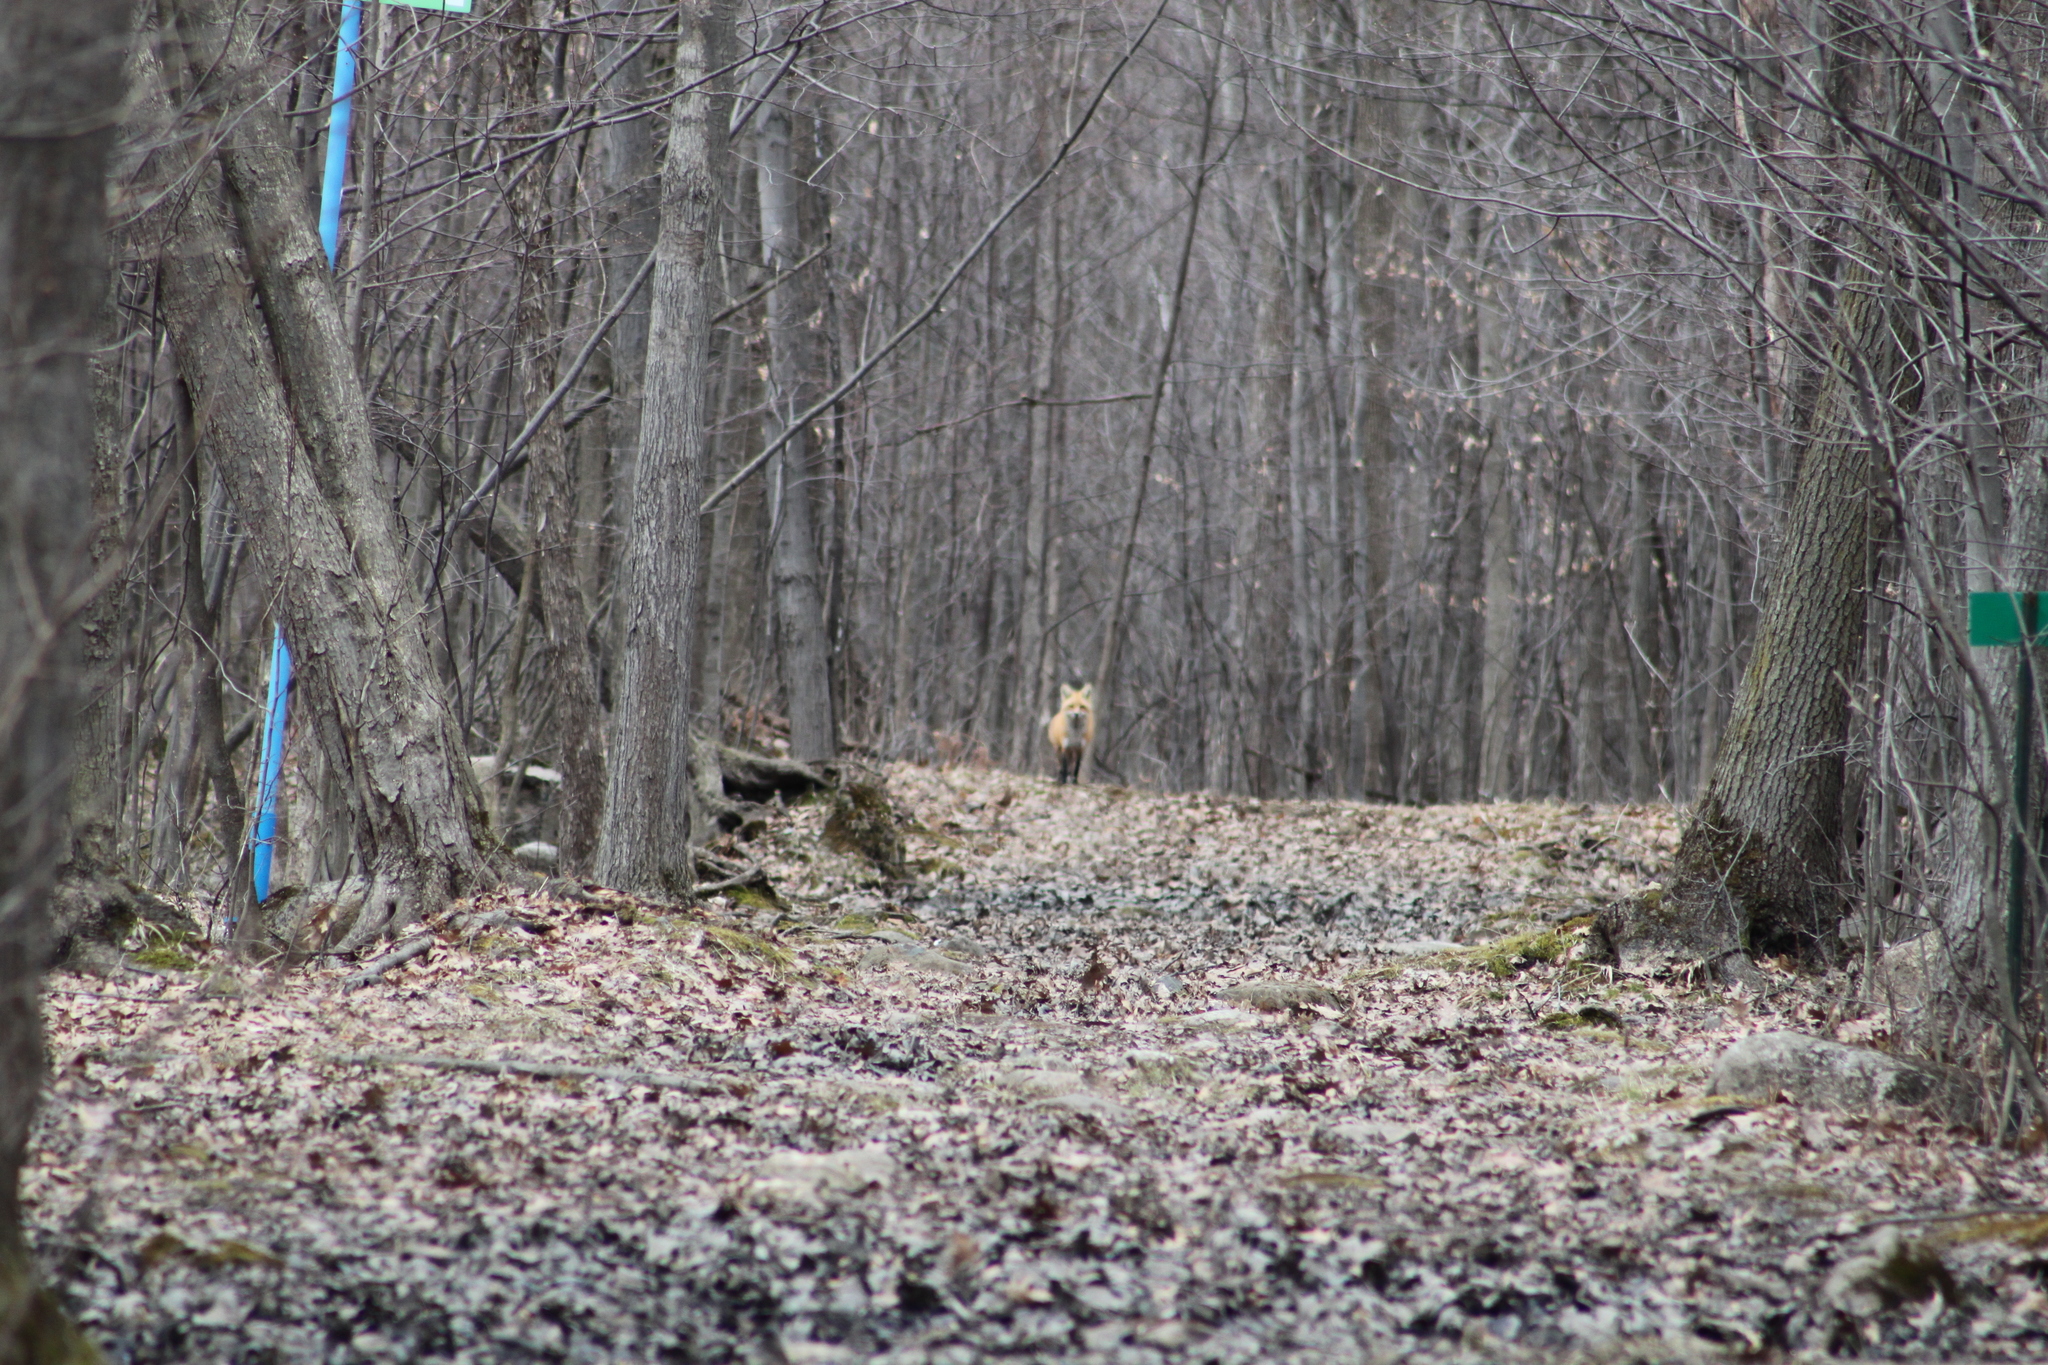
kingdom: Animalia
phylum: Chordata
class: Mammalia
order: Carnivora
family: Canidae
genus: Vulpes
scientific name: Vulpes vulpes
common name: Red fox
